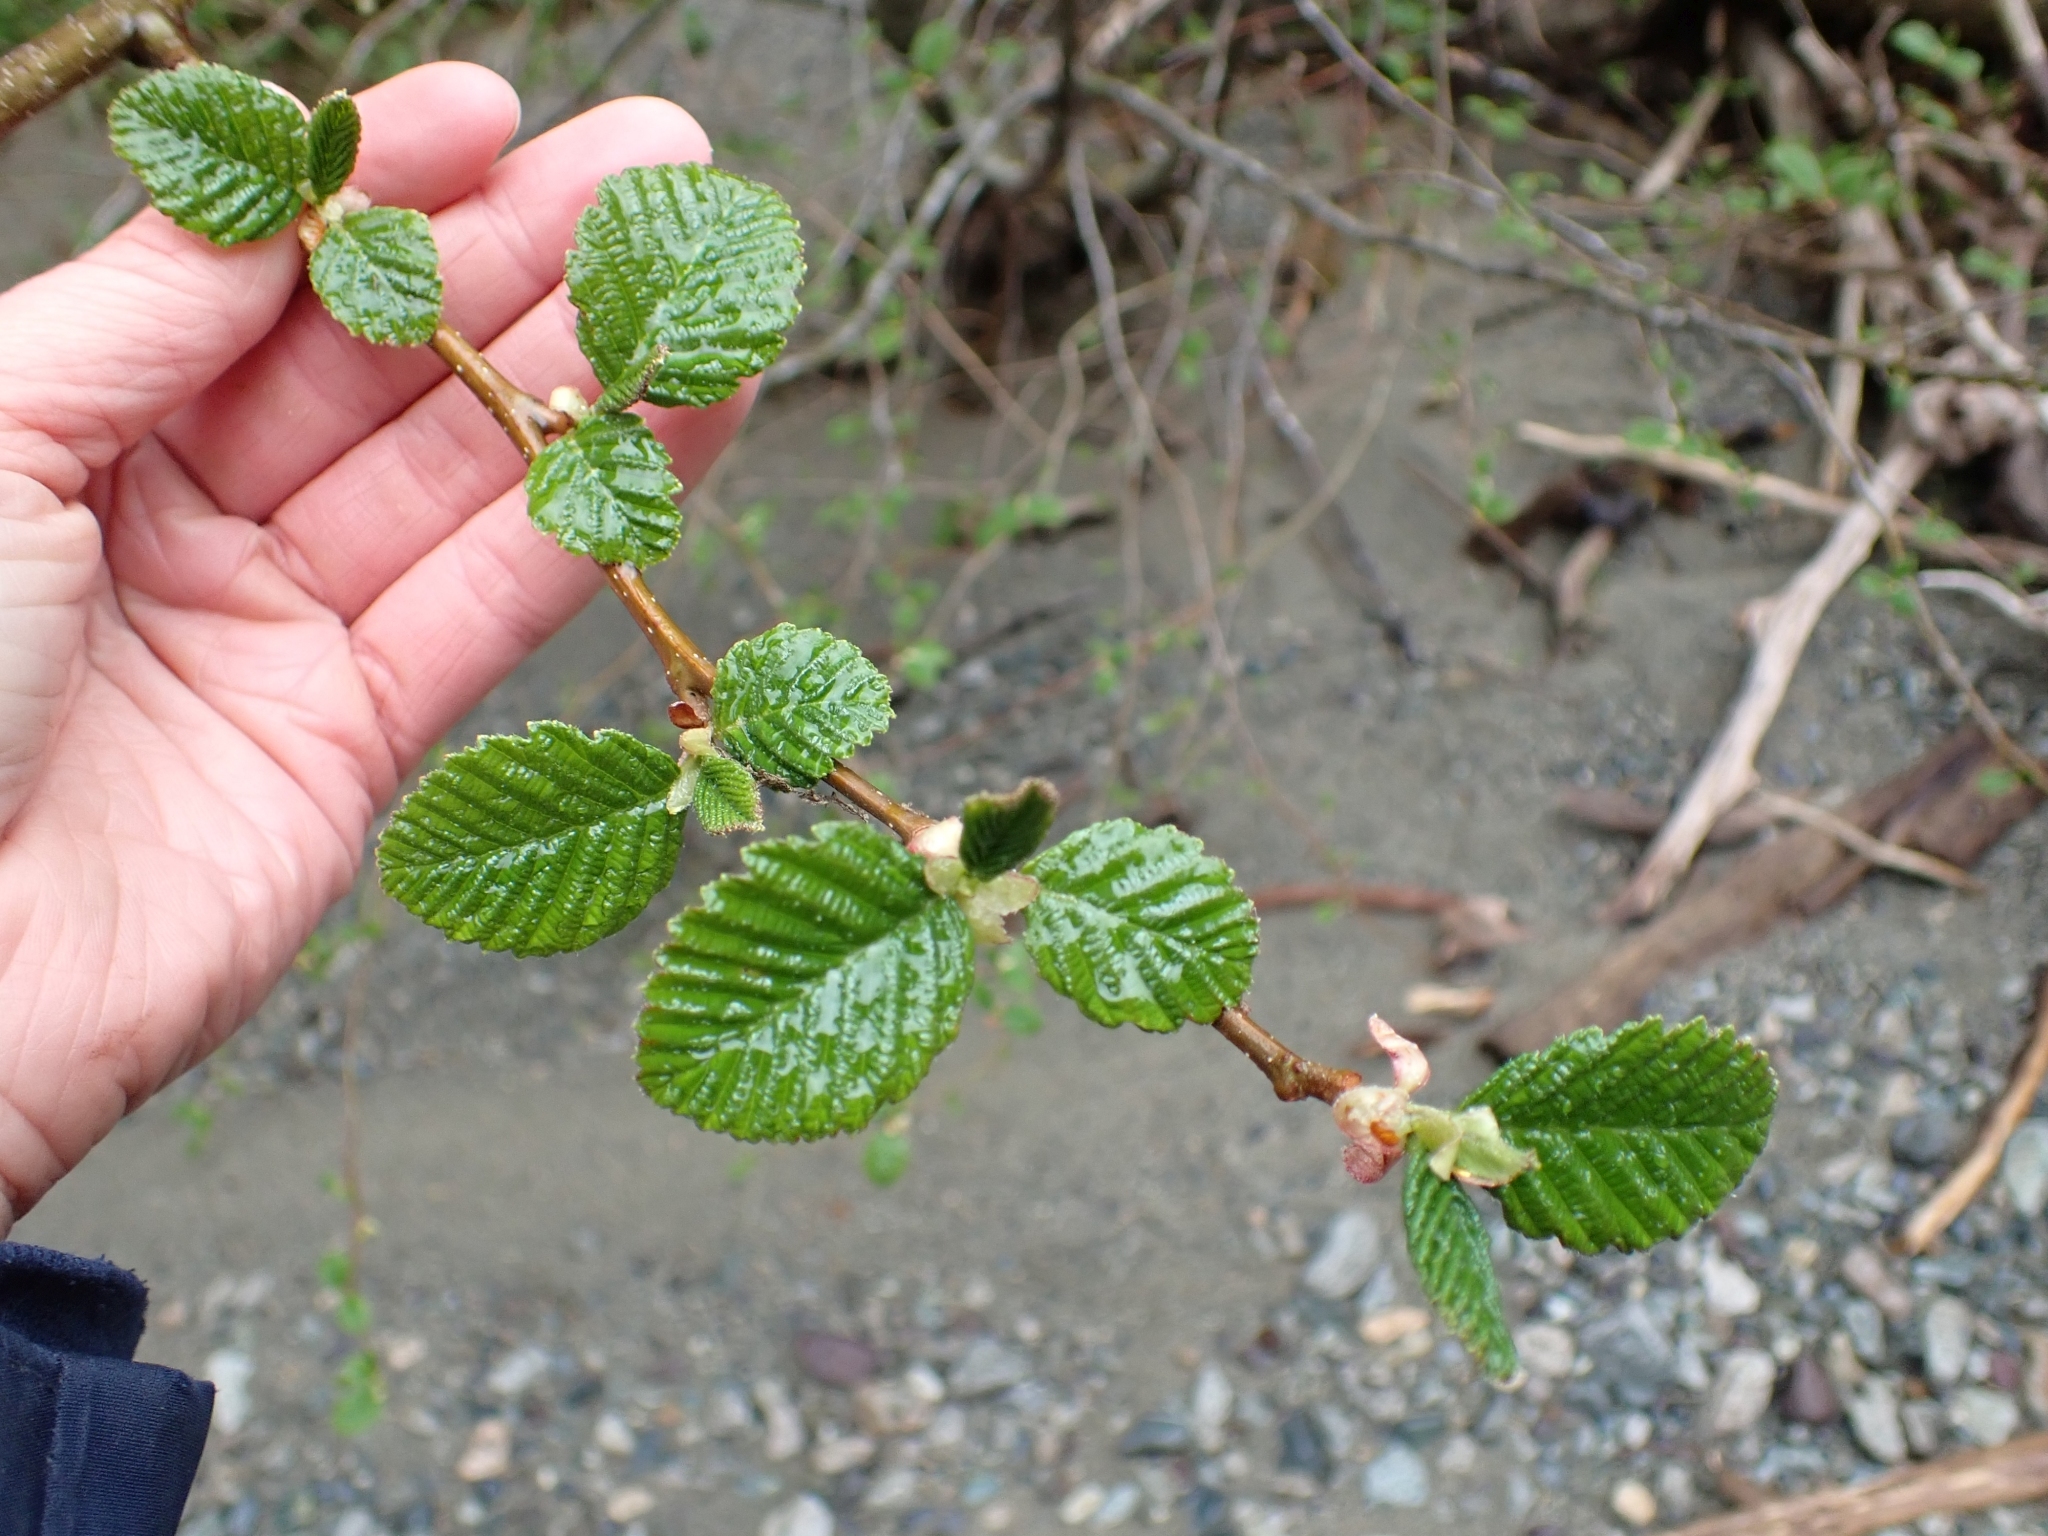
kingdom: Plantae
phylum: Tracheophyta
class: Magnoliopsida
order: Fagales
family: Betulaceae
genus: Alnus
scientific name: Alnus rubra
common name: Red alder
